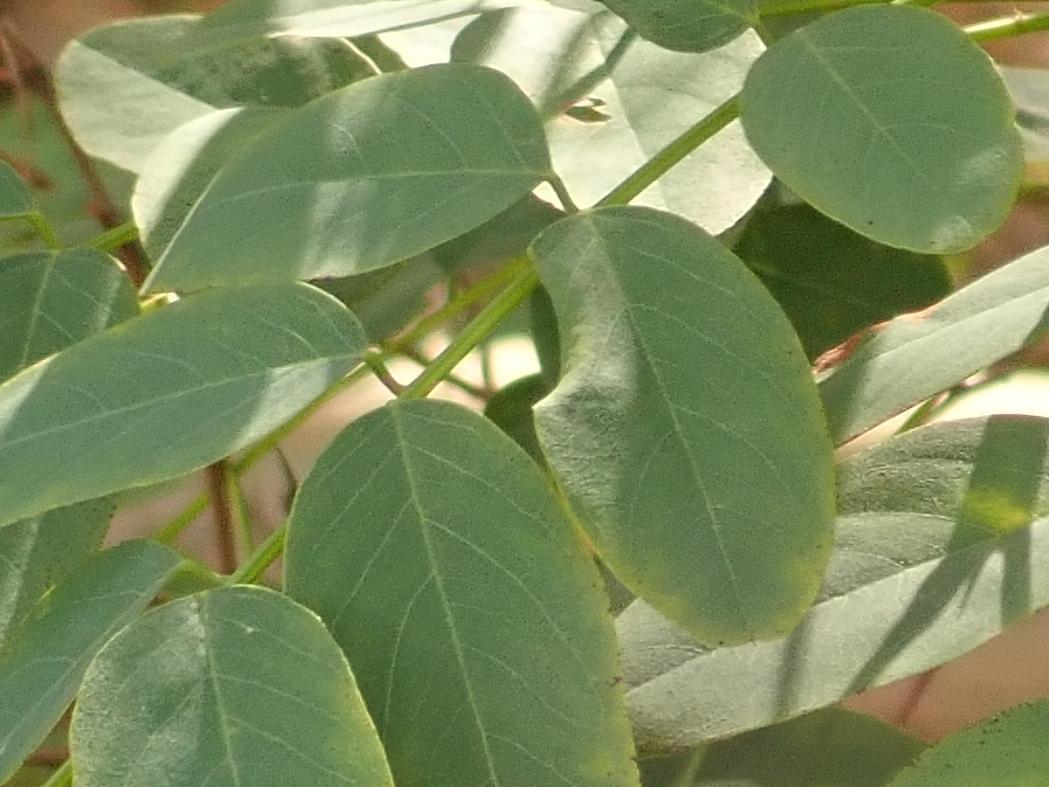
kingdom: Animalia
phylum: Arthropoda
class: Insecta
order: Diptera
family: Cecidomyiidae
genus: Obolodiplosis
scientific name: Obolodiplosis robiniae
